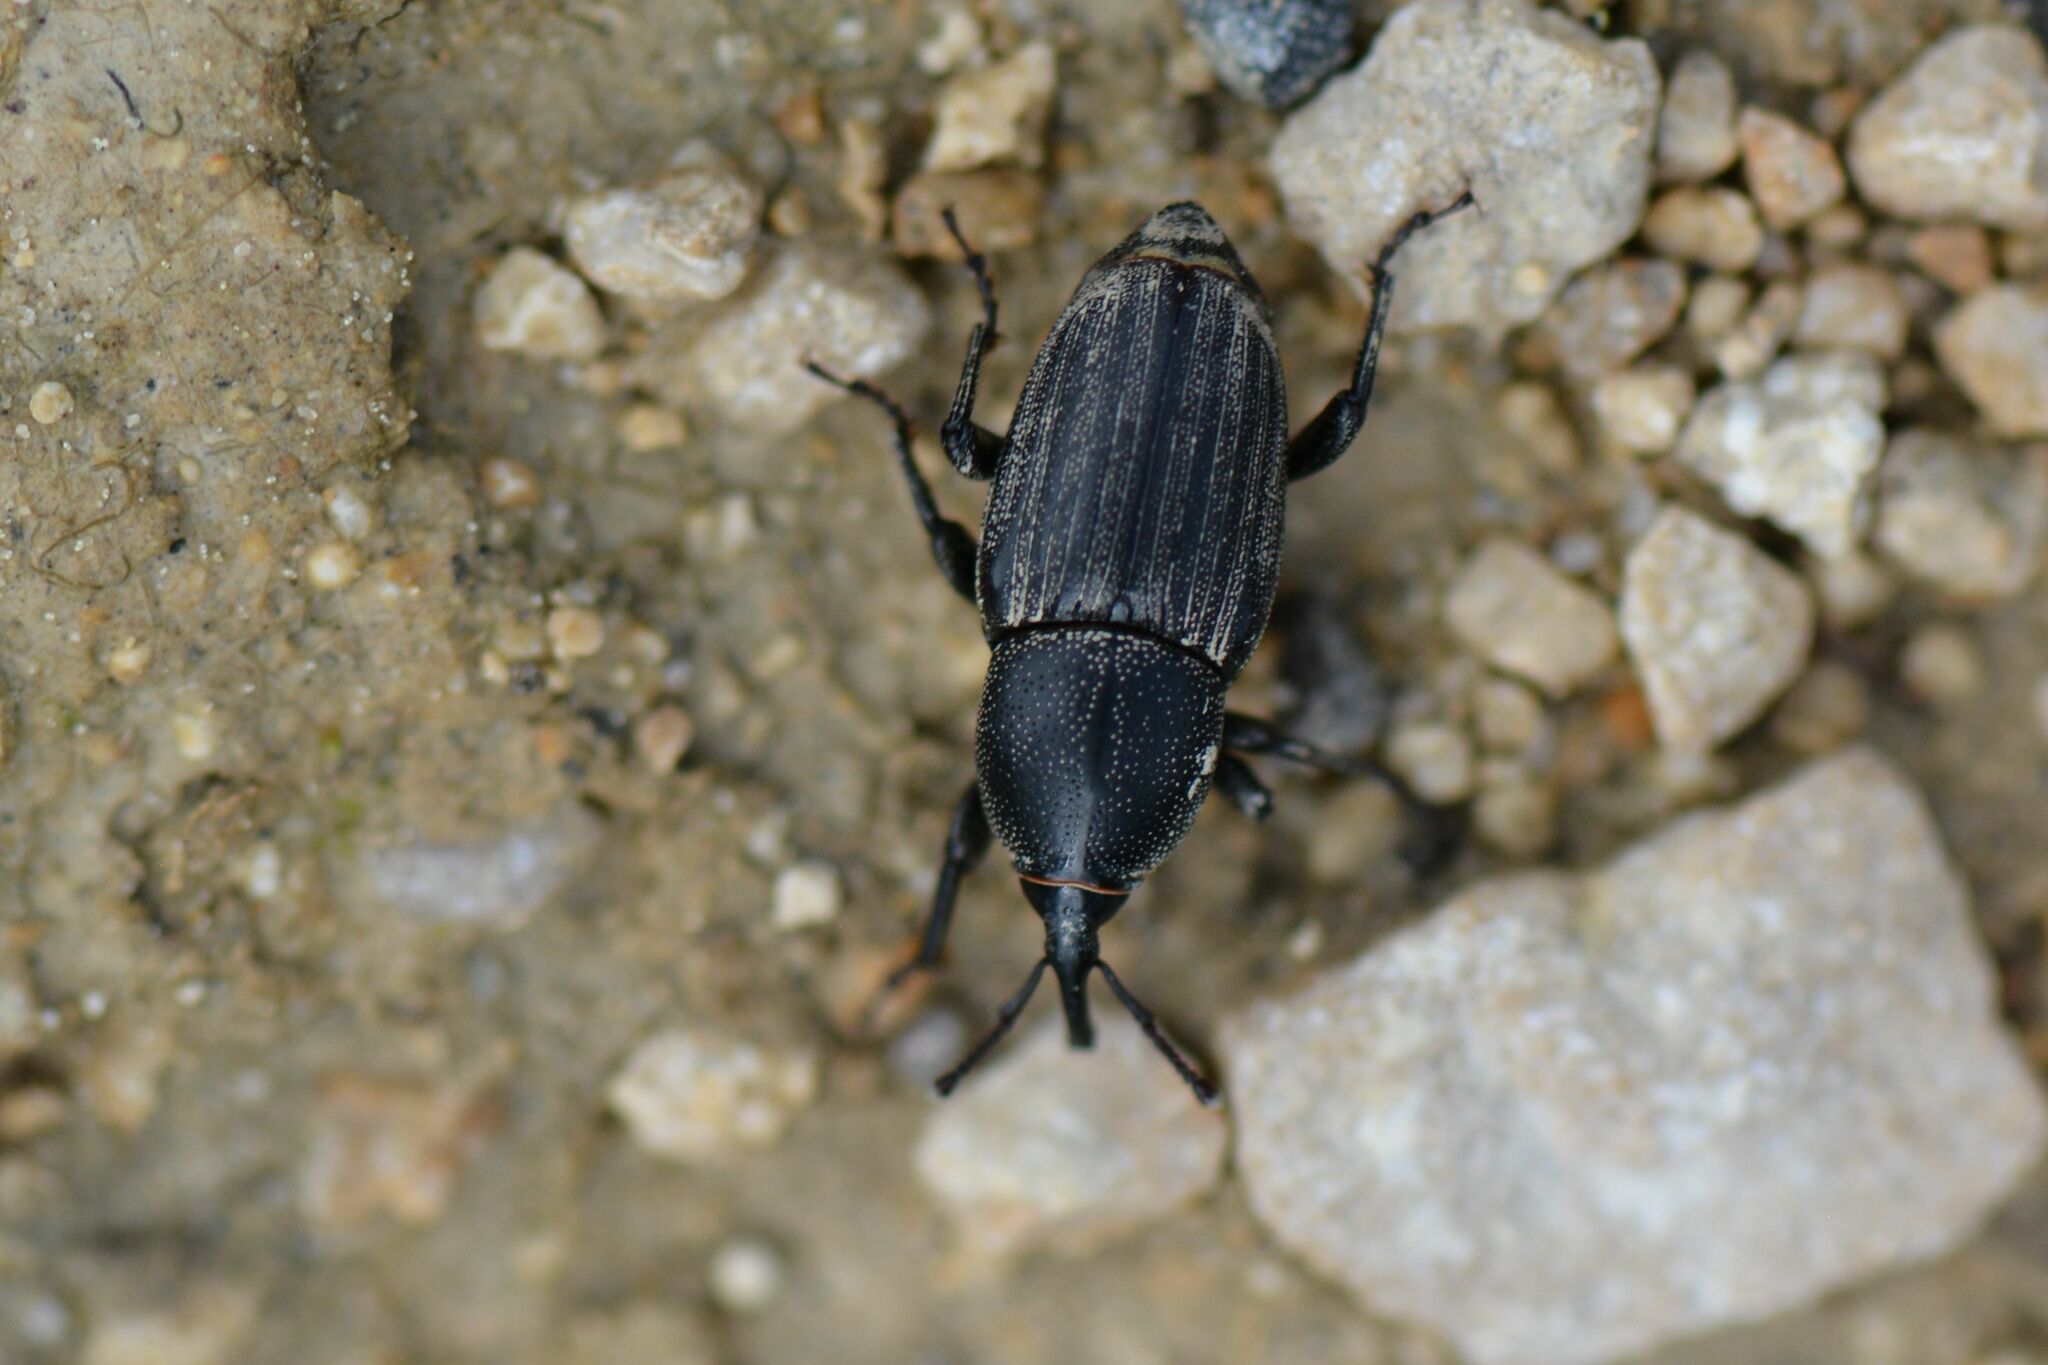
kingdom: Animalia
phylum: Arthropoda
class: Insecta
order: Coleoptera
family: Dryophthoridae
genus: Sphenophorus
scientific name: Sphenophorus striatopunctatus
